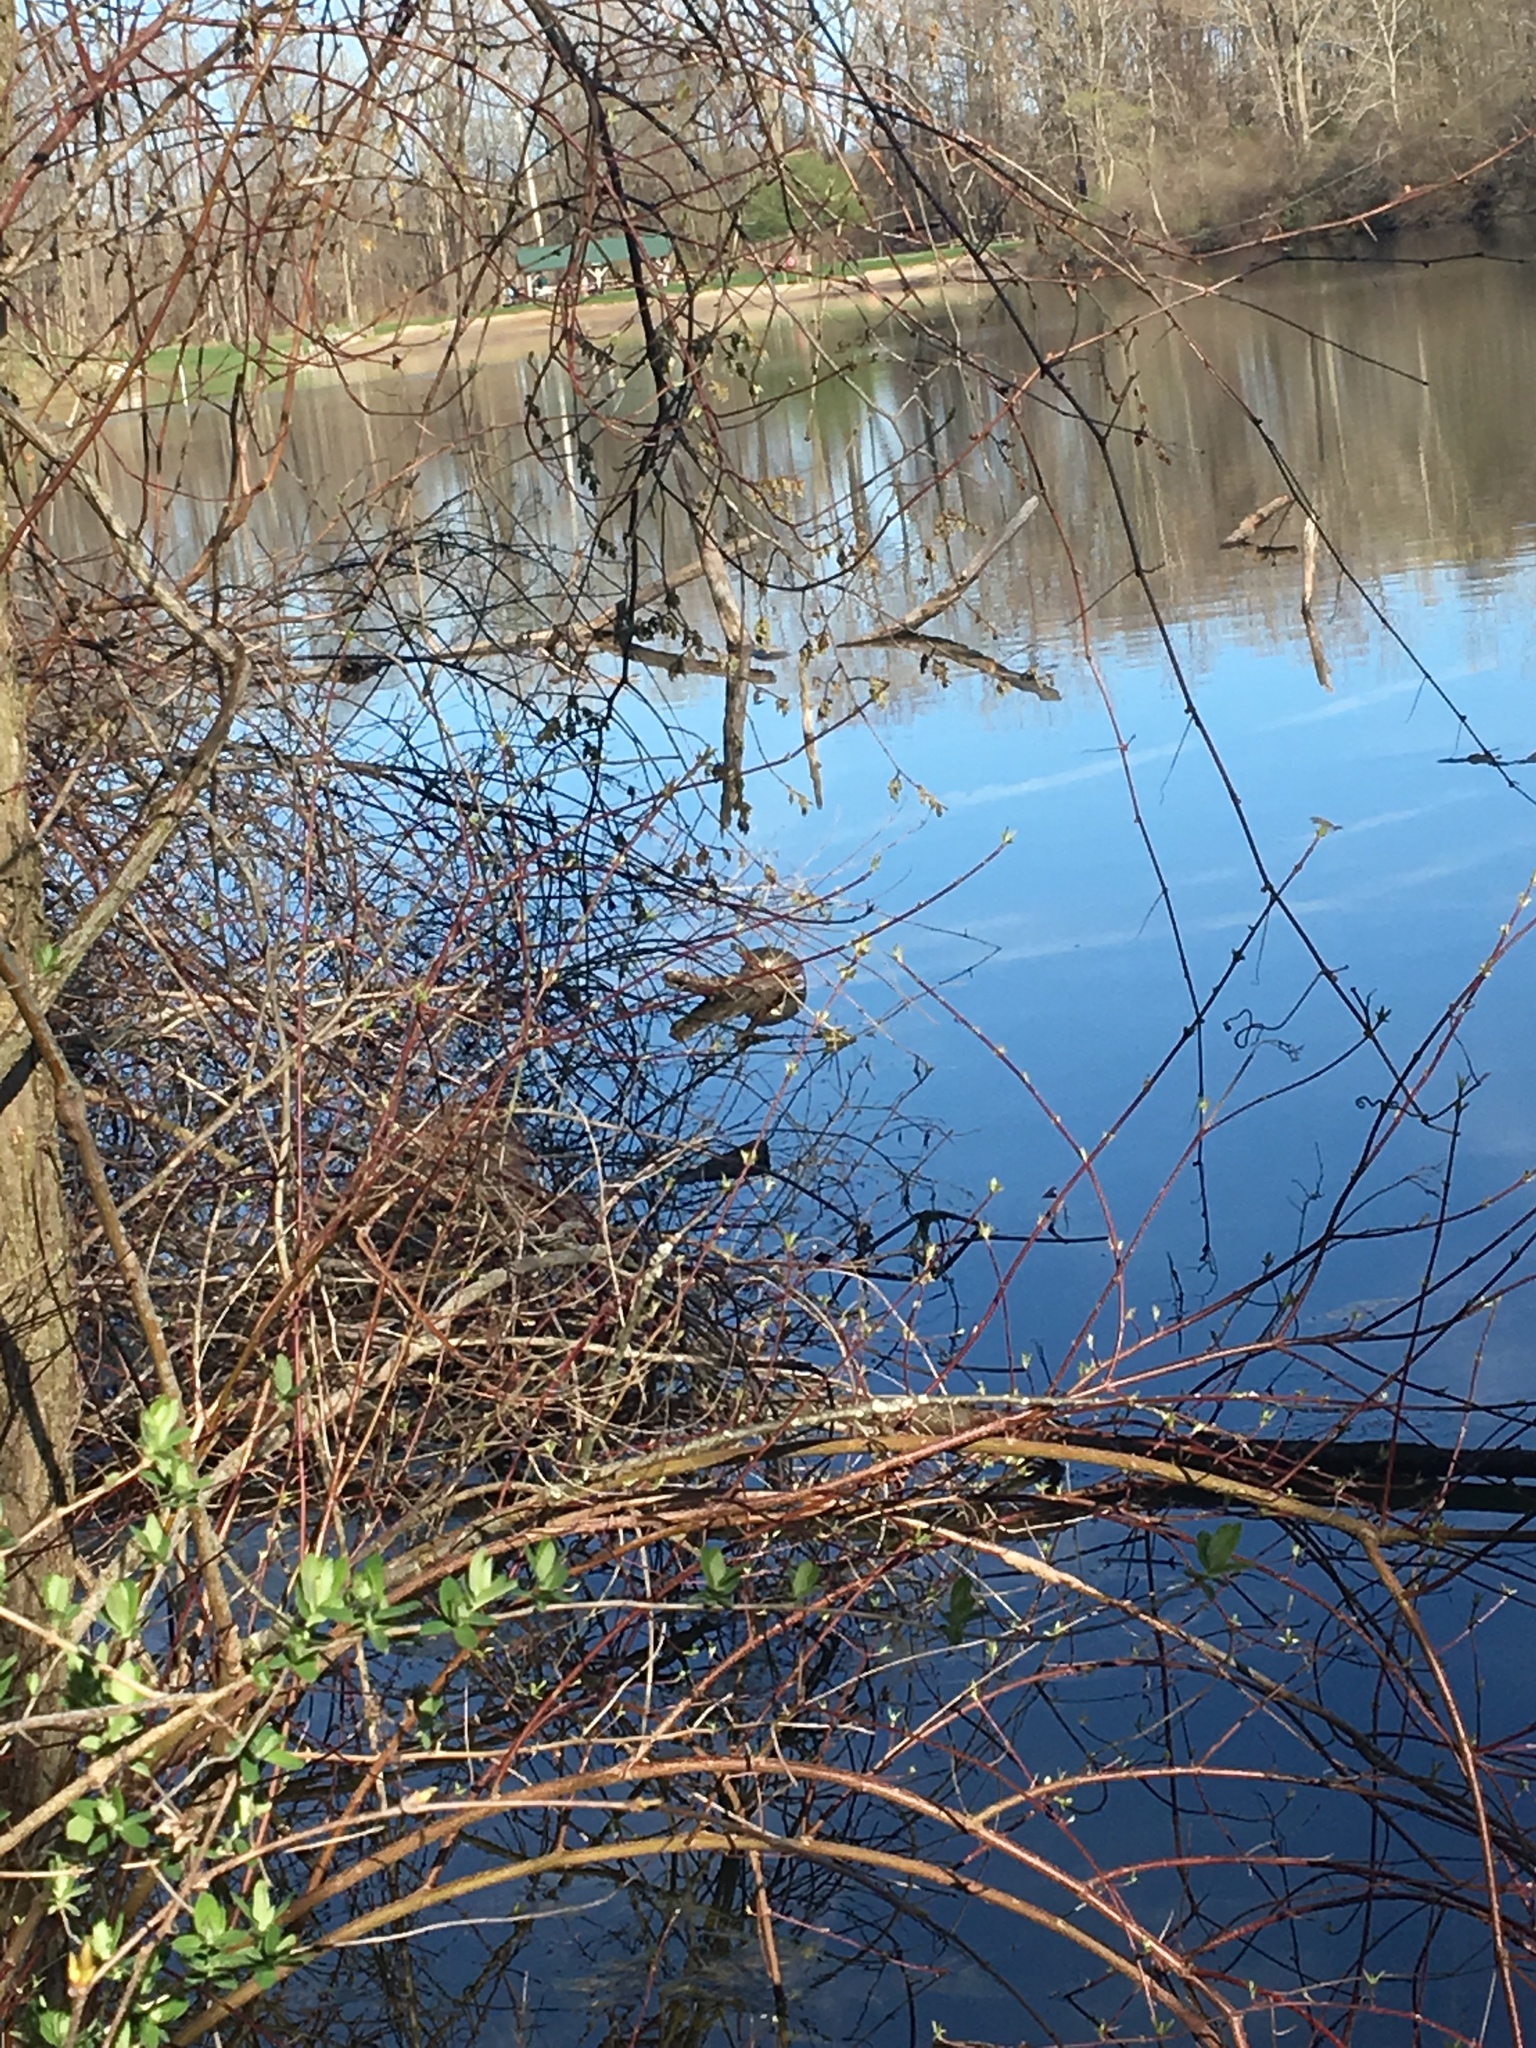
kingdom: Animalia
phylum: Chordata
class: Testudines
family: Emydidae
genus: Chrysemys
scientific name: Chrysemys picta
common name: Painted turtle
